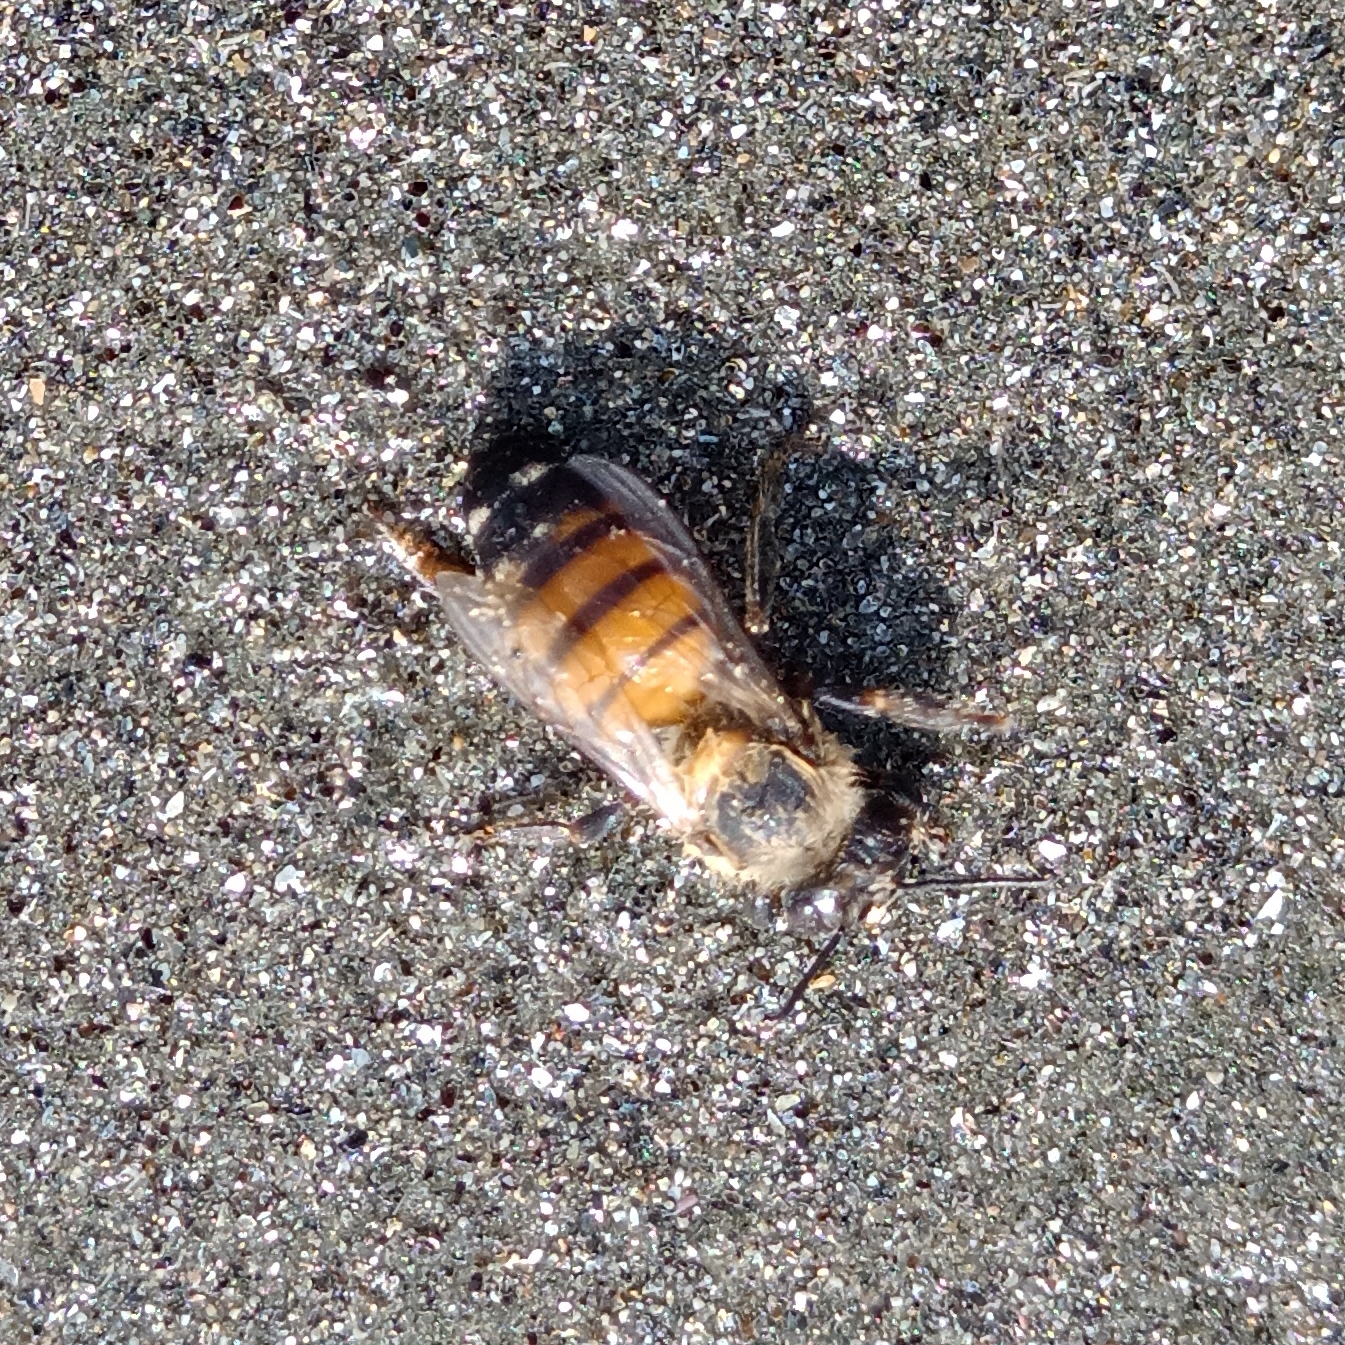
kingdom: Animalia
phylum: Arthropoda
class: Insecta
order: Hymenoptera
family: Apidae
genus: Apis
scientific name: Apis mellifera
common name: Honey bee
